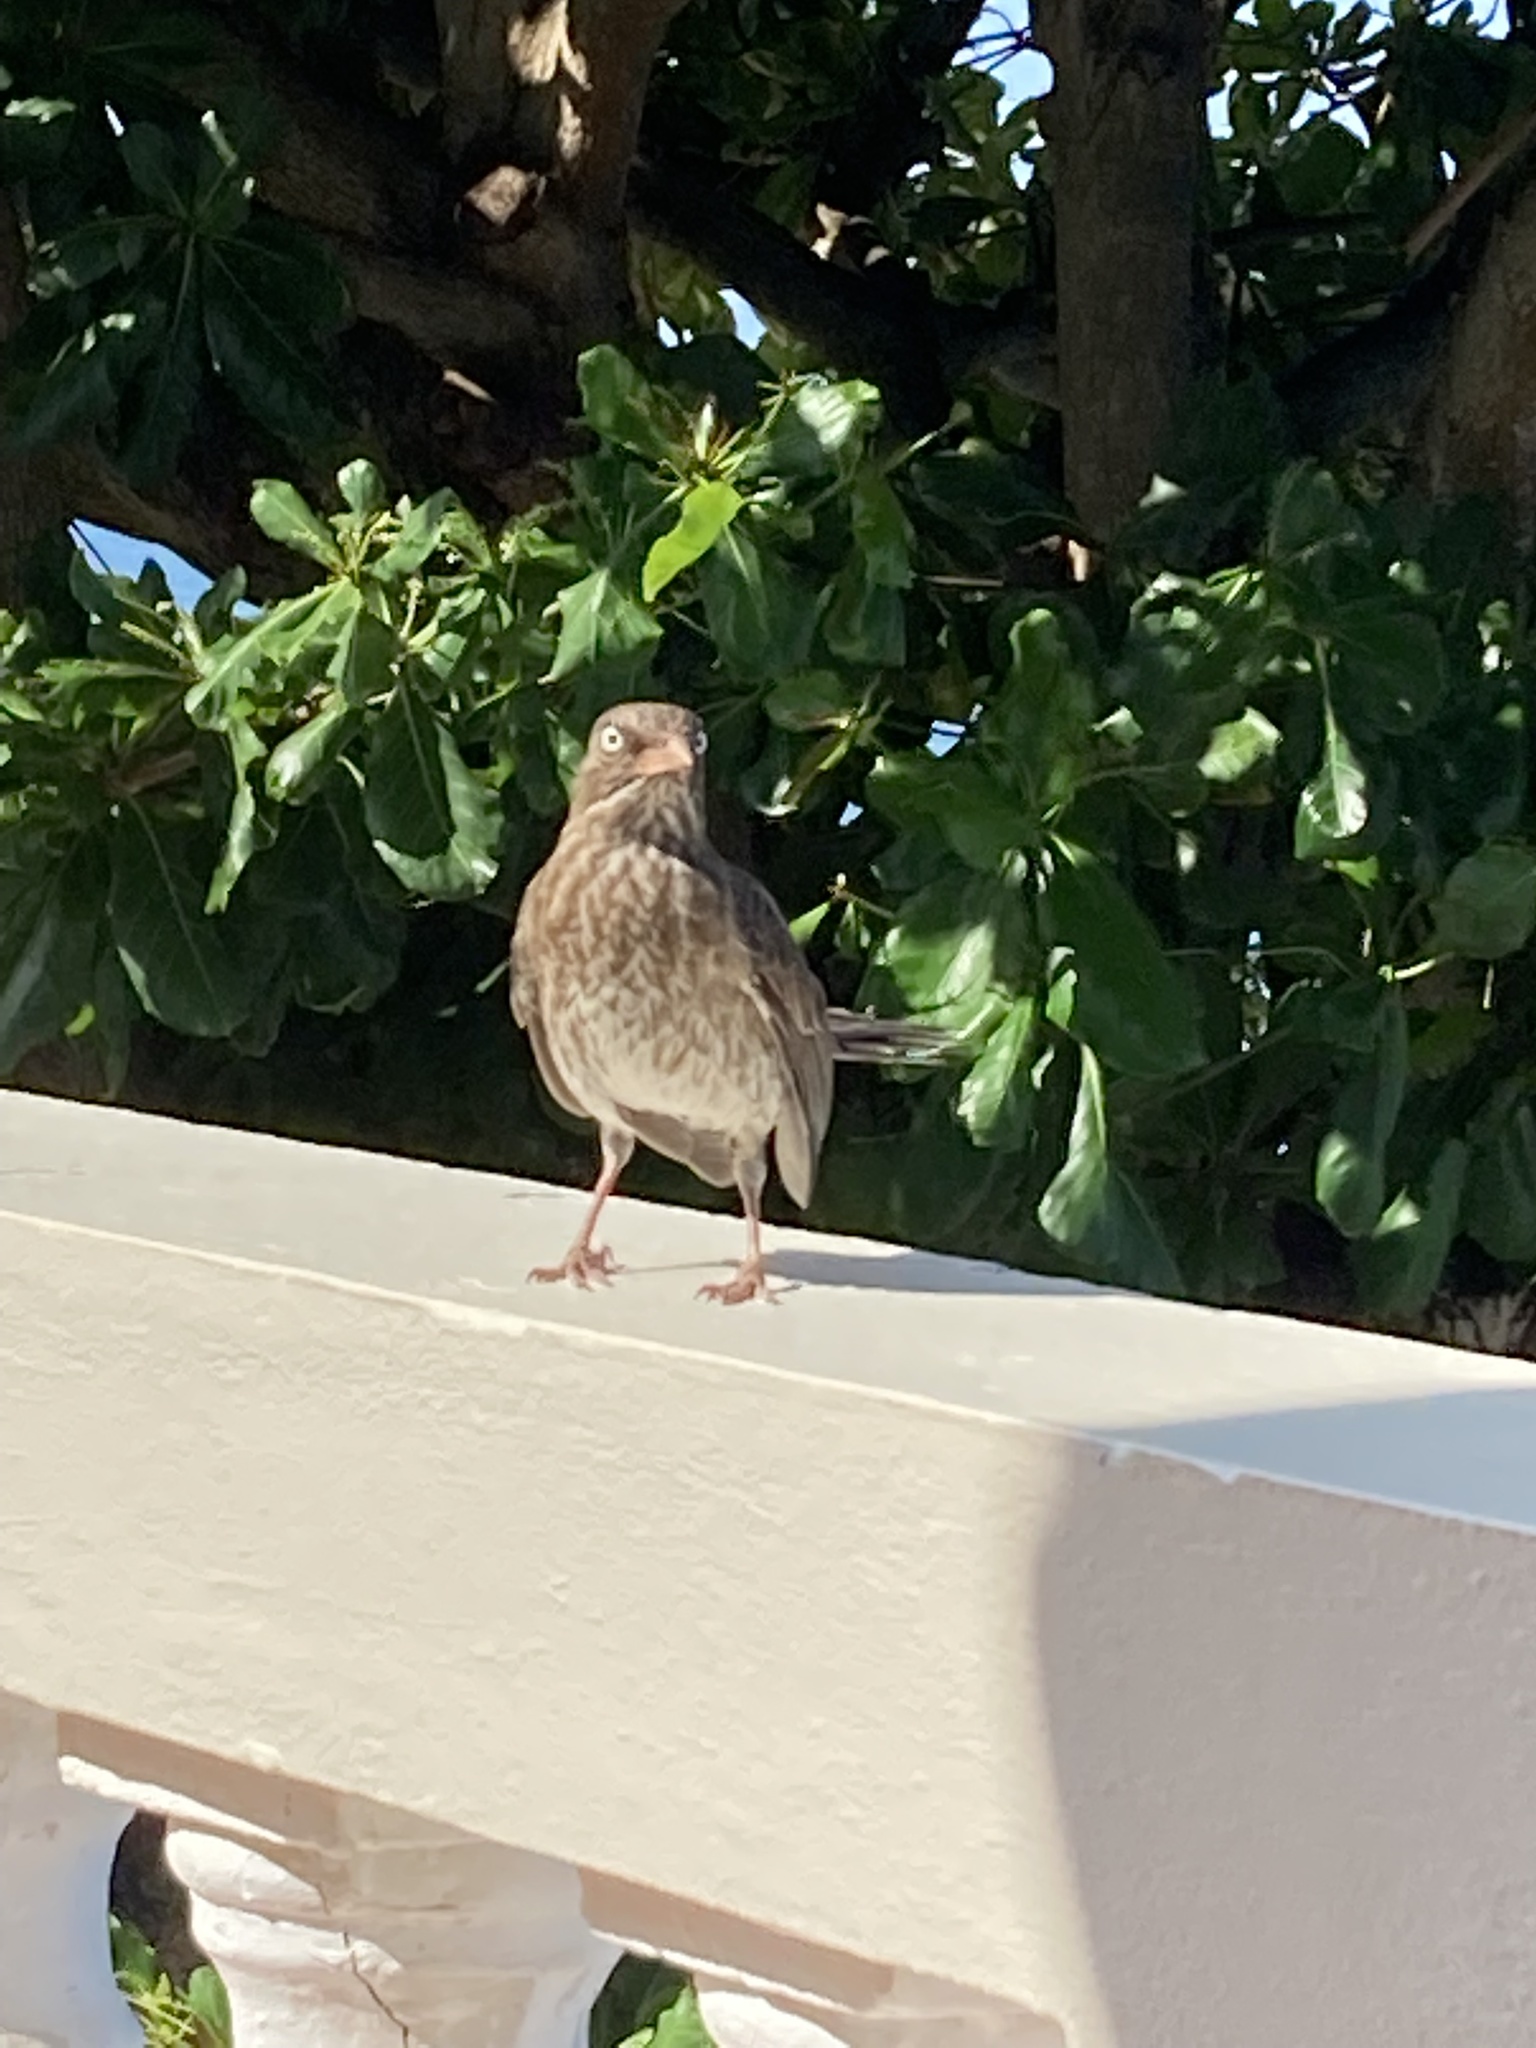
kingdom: Animalia
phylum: Chordata
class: Aves
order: Passeriformes
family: Mimidae
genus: Margarops
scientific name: Margarops fuscatus
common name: Pearly-eyed thrasher
